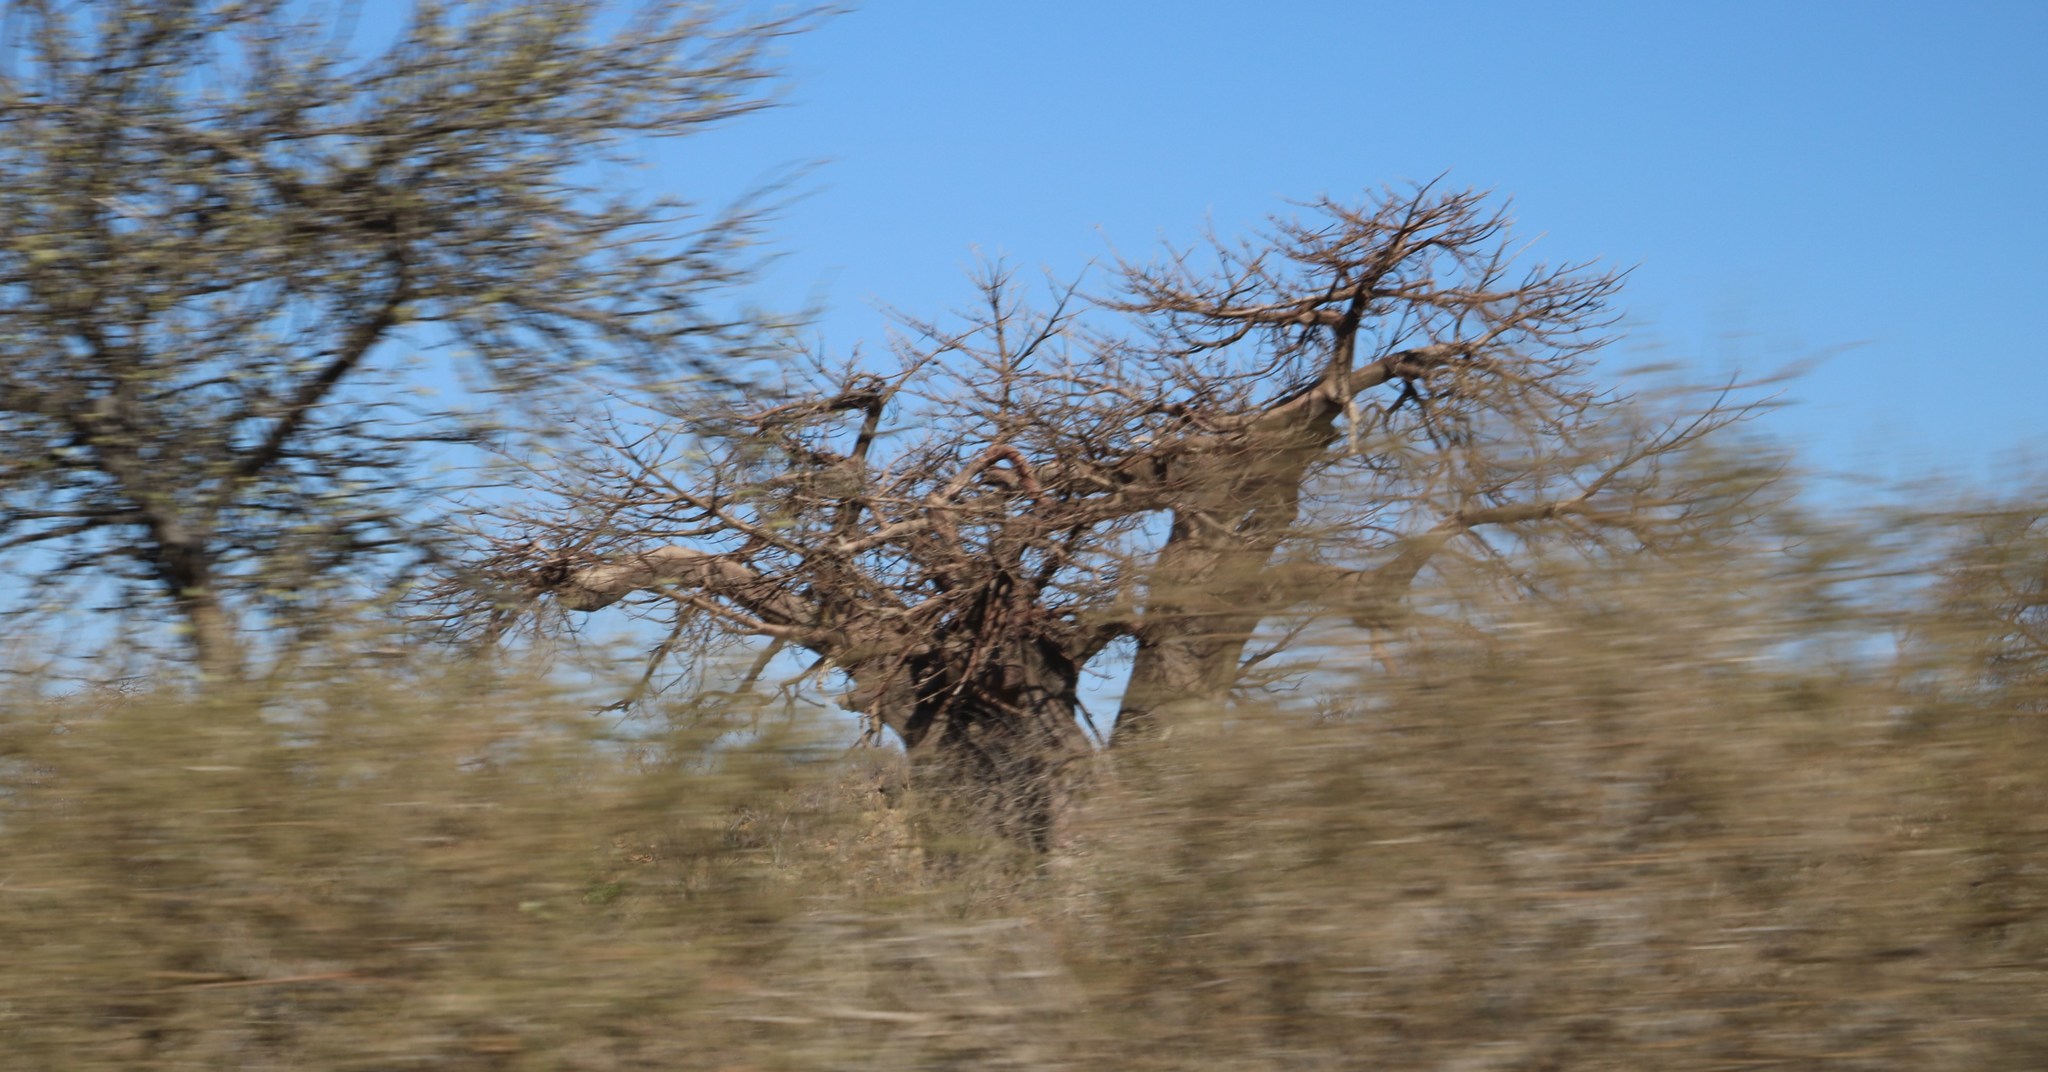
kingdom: Plantae
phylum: Tracheophyta
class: Magnoliopsida
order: Malvales
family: Malvaceae
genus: Adansonia
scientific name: Adansonia digitata
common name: Dead-rat-tree
